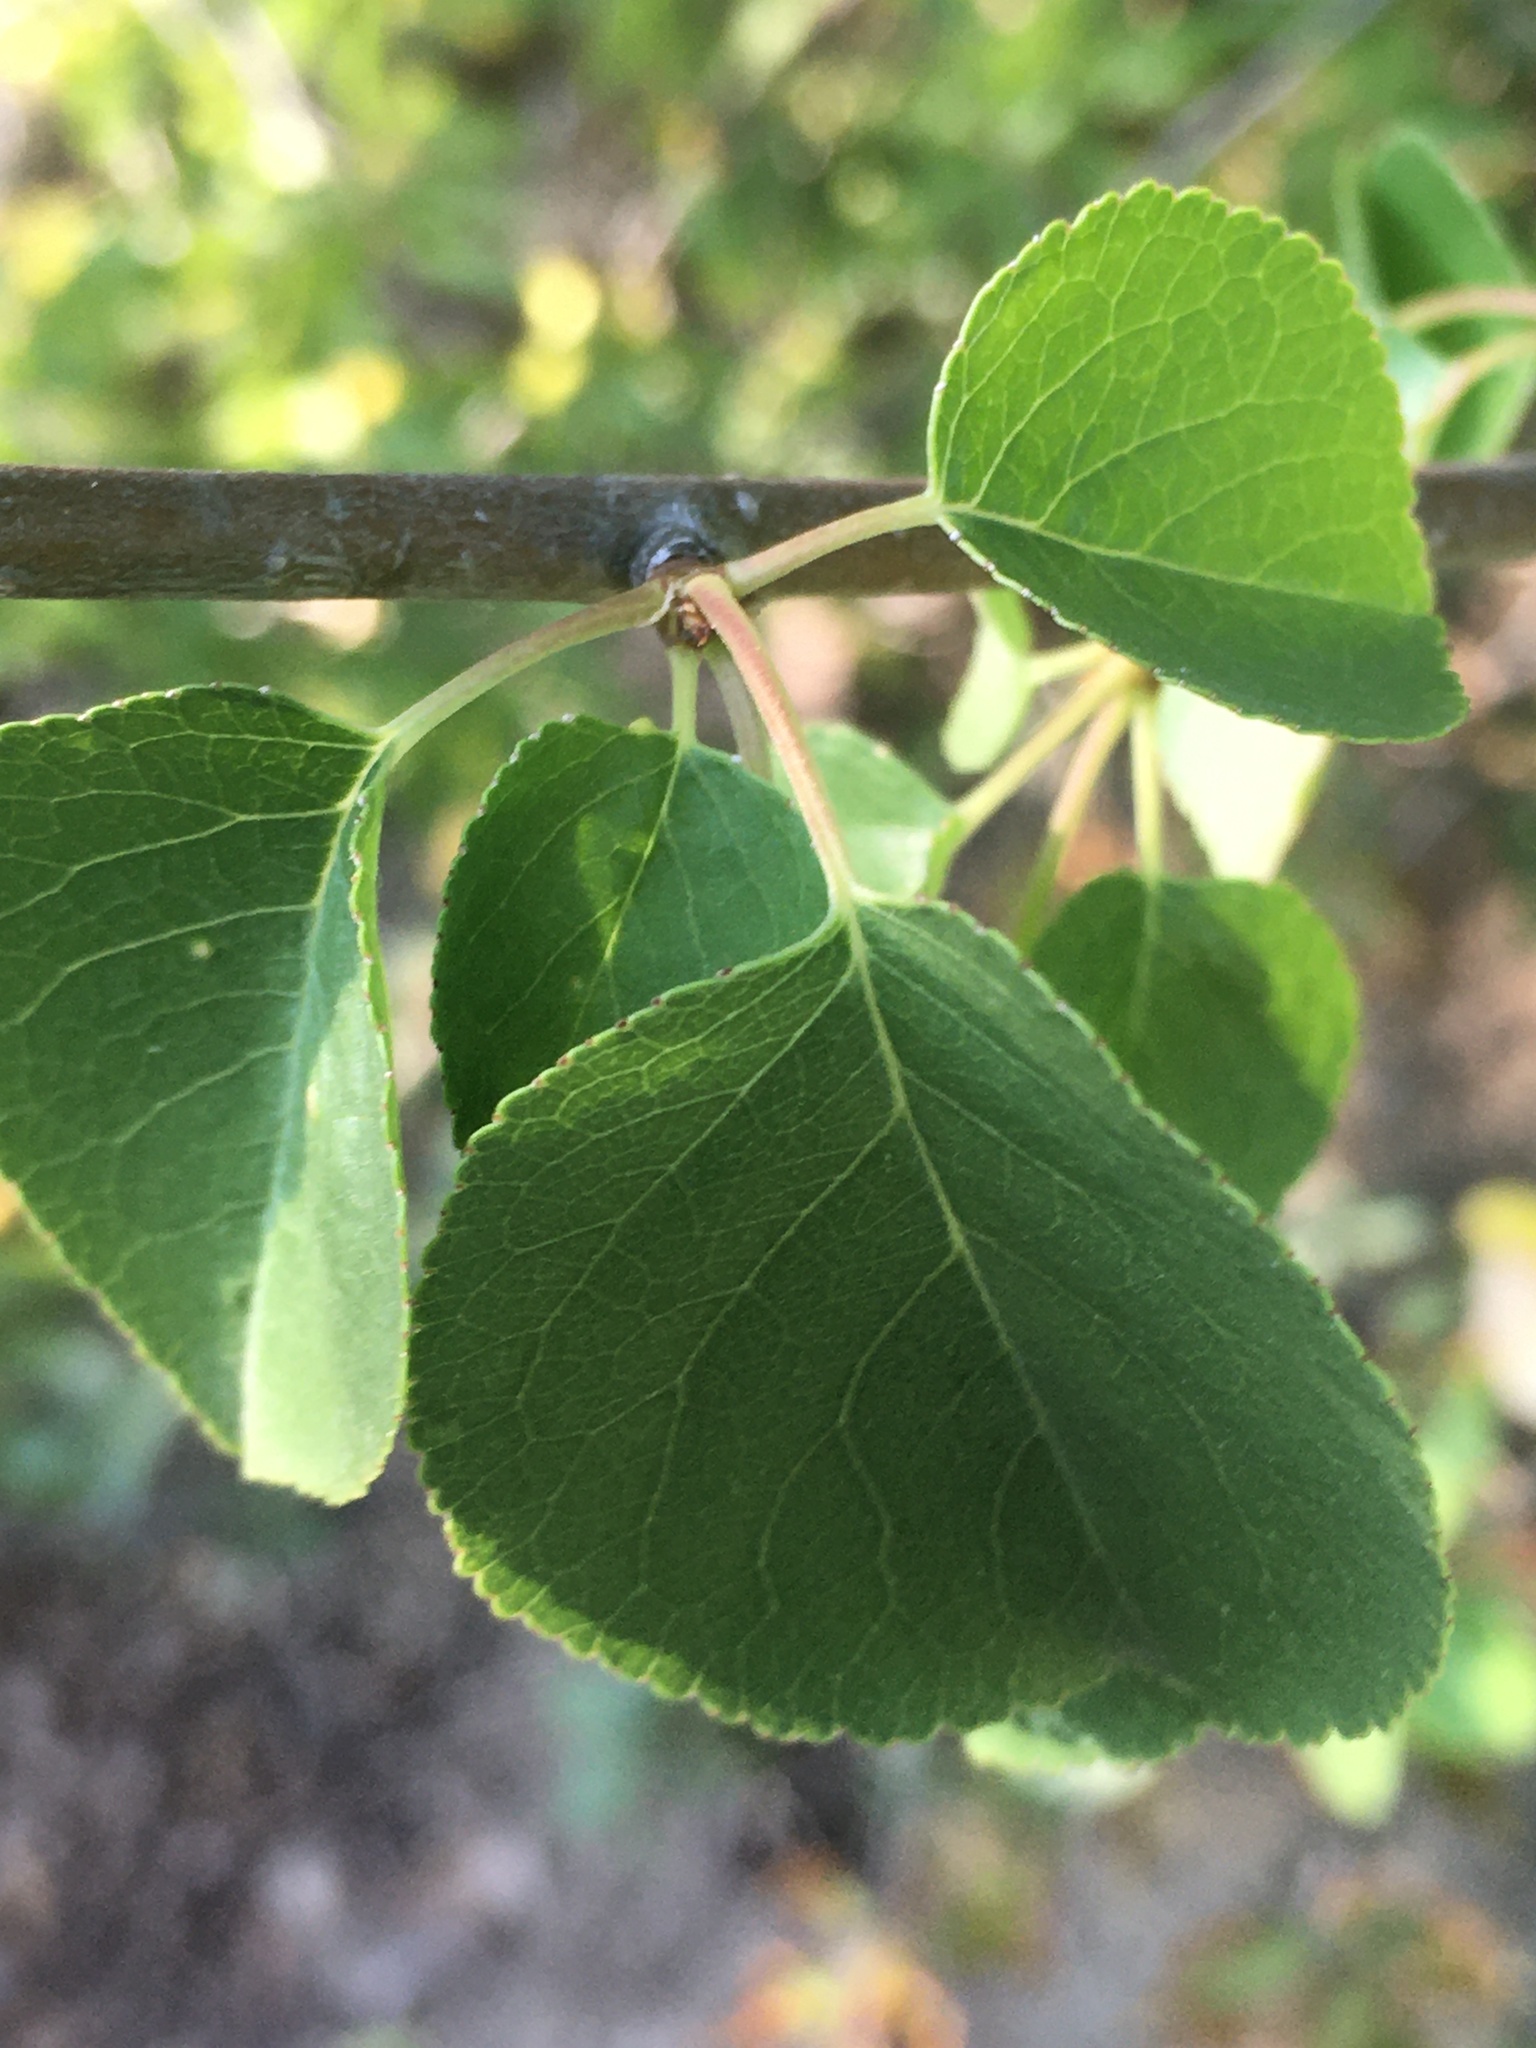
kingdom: Plantae
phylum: Tracheophyta
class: Magnoliopsida
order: Rosales
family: Rosaceae
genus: Prunus
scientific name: Prunus mahaleb
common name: Mahaleb cherry
